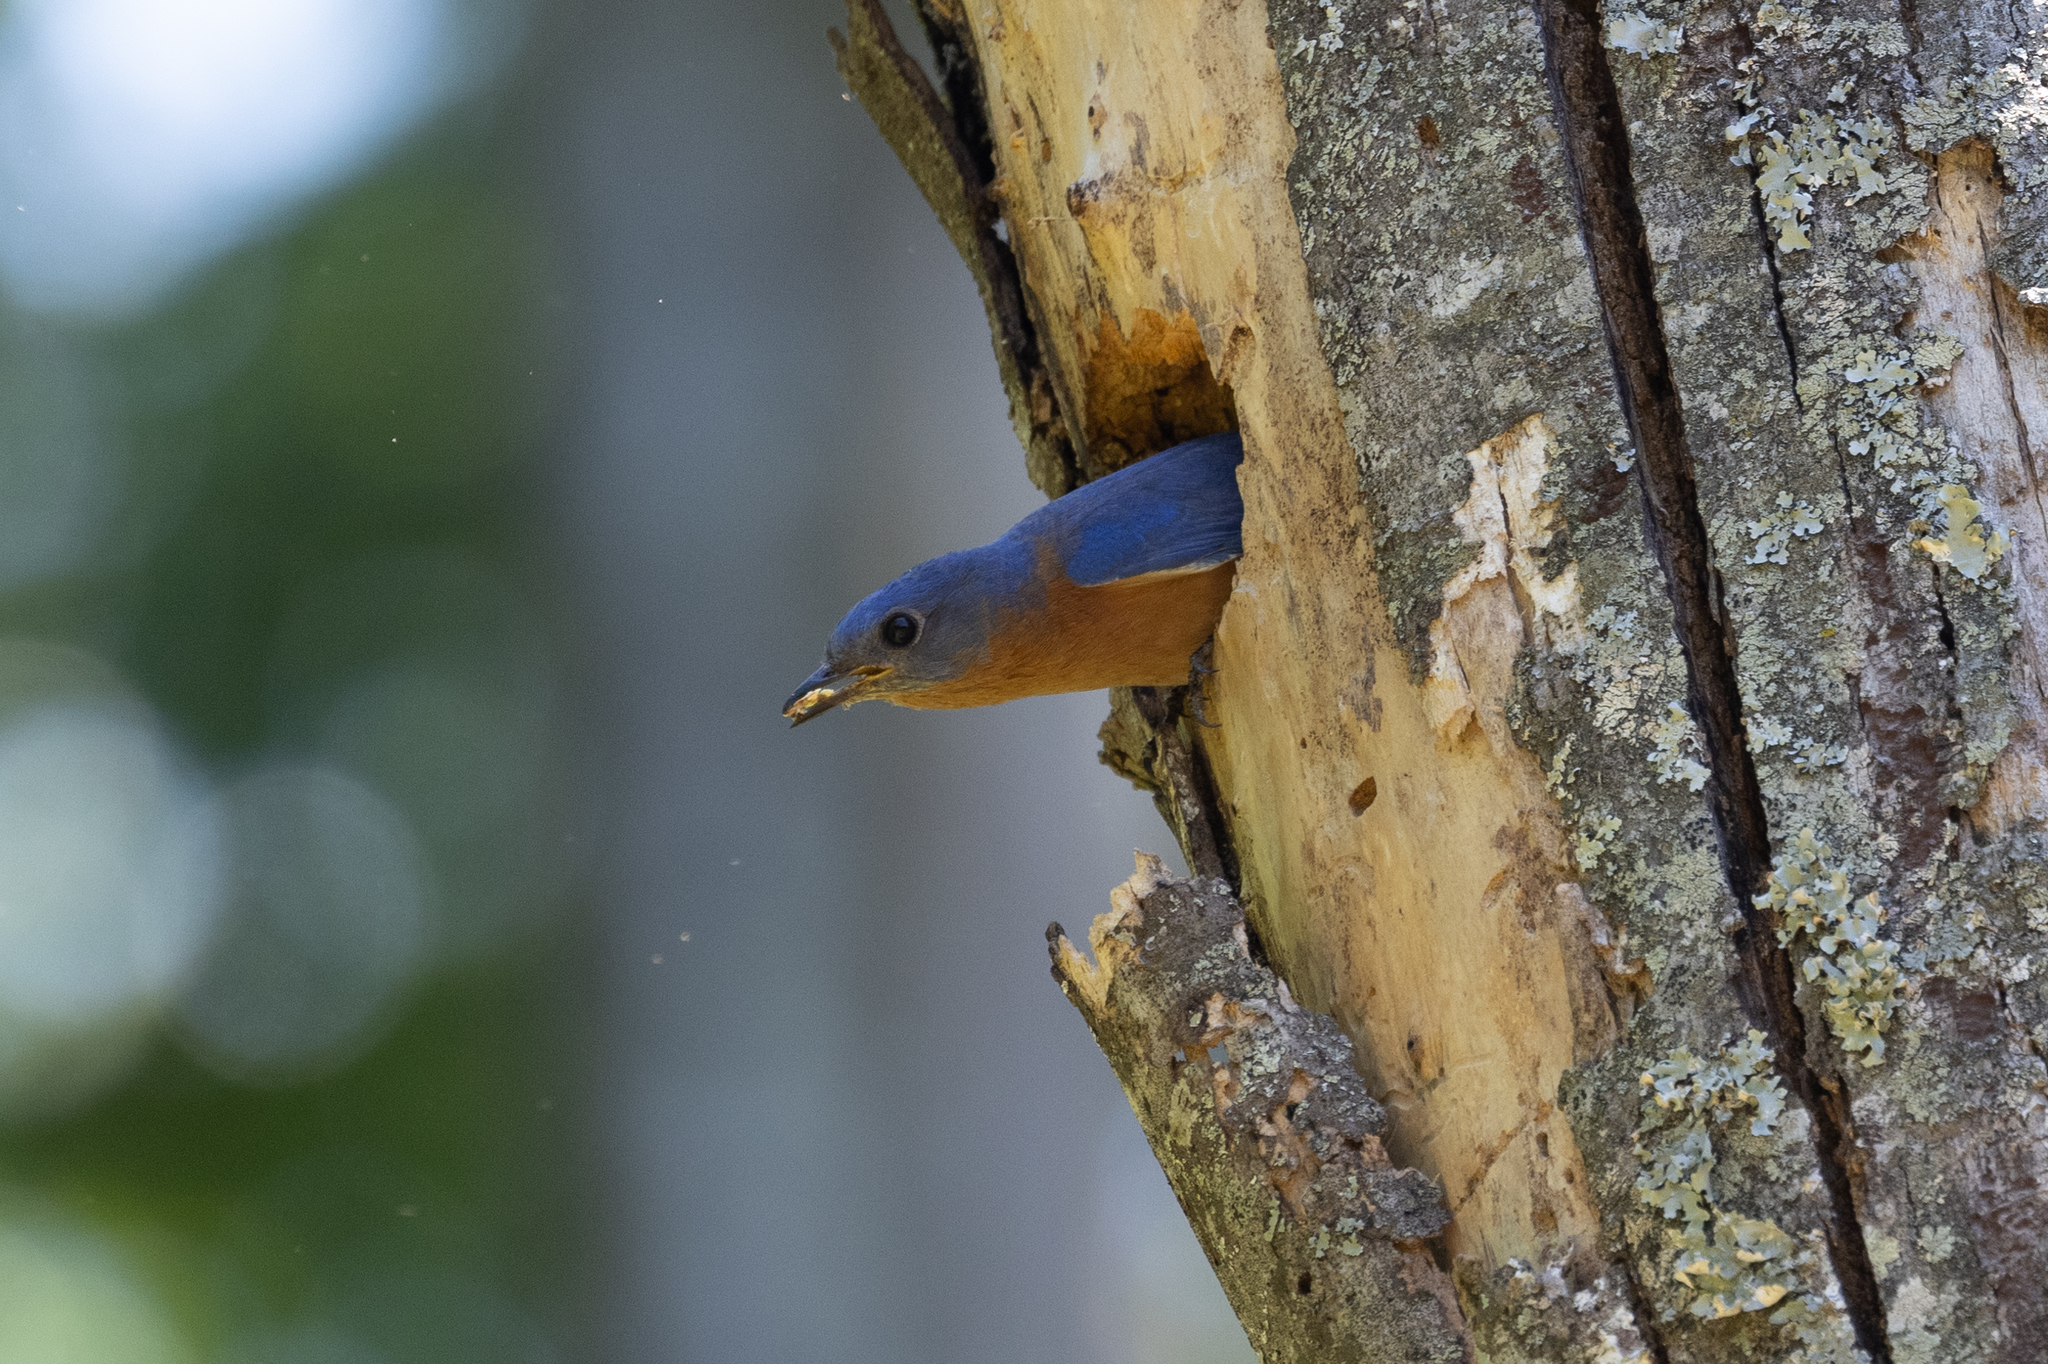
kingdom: Animalia
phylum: Chordata
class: Aves
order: Passeriformes
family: Turdidae
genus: Sialia
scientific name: Sialia sialis
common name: Eastern bluebird
